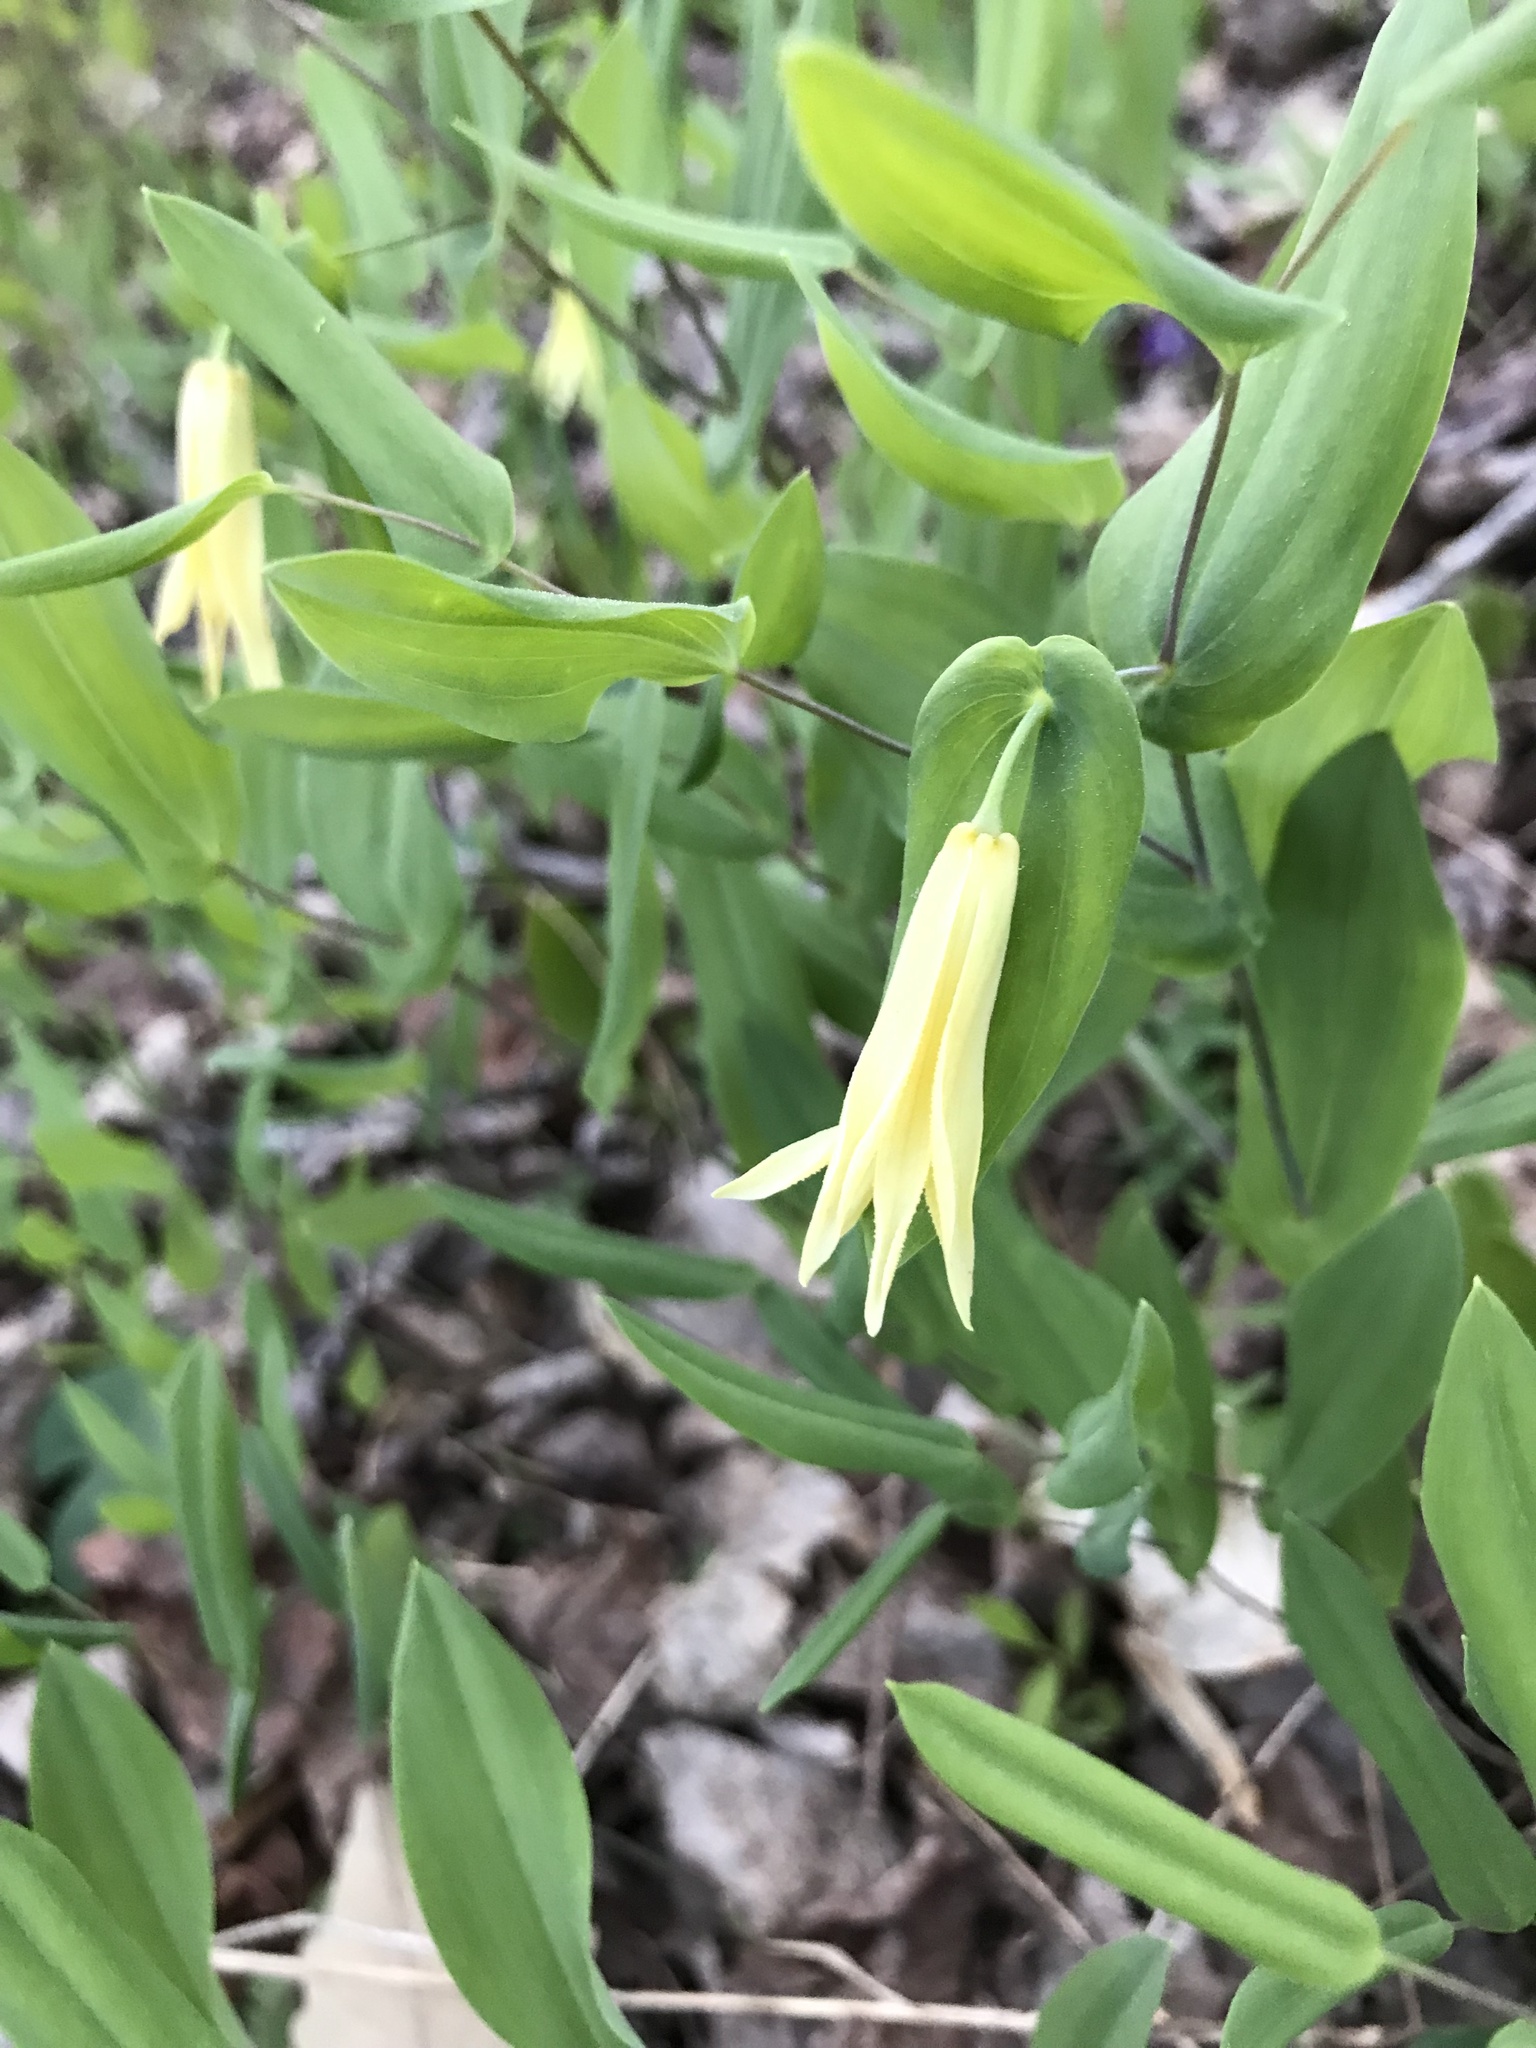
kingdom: Plantae
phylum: Tracheophyta
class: Liliopsida
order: Liliales
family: Colchicaceae
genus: Uvularia
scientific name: Uvularia perfoliata
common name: Perfoliate bellwort
